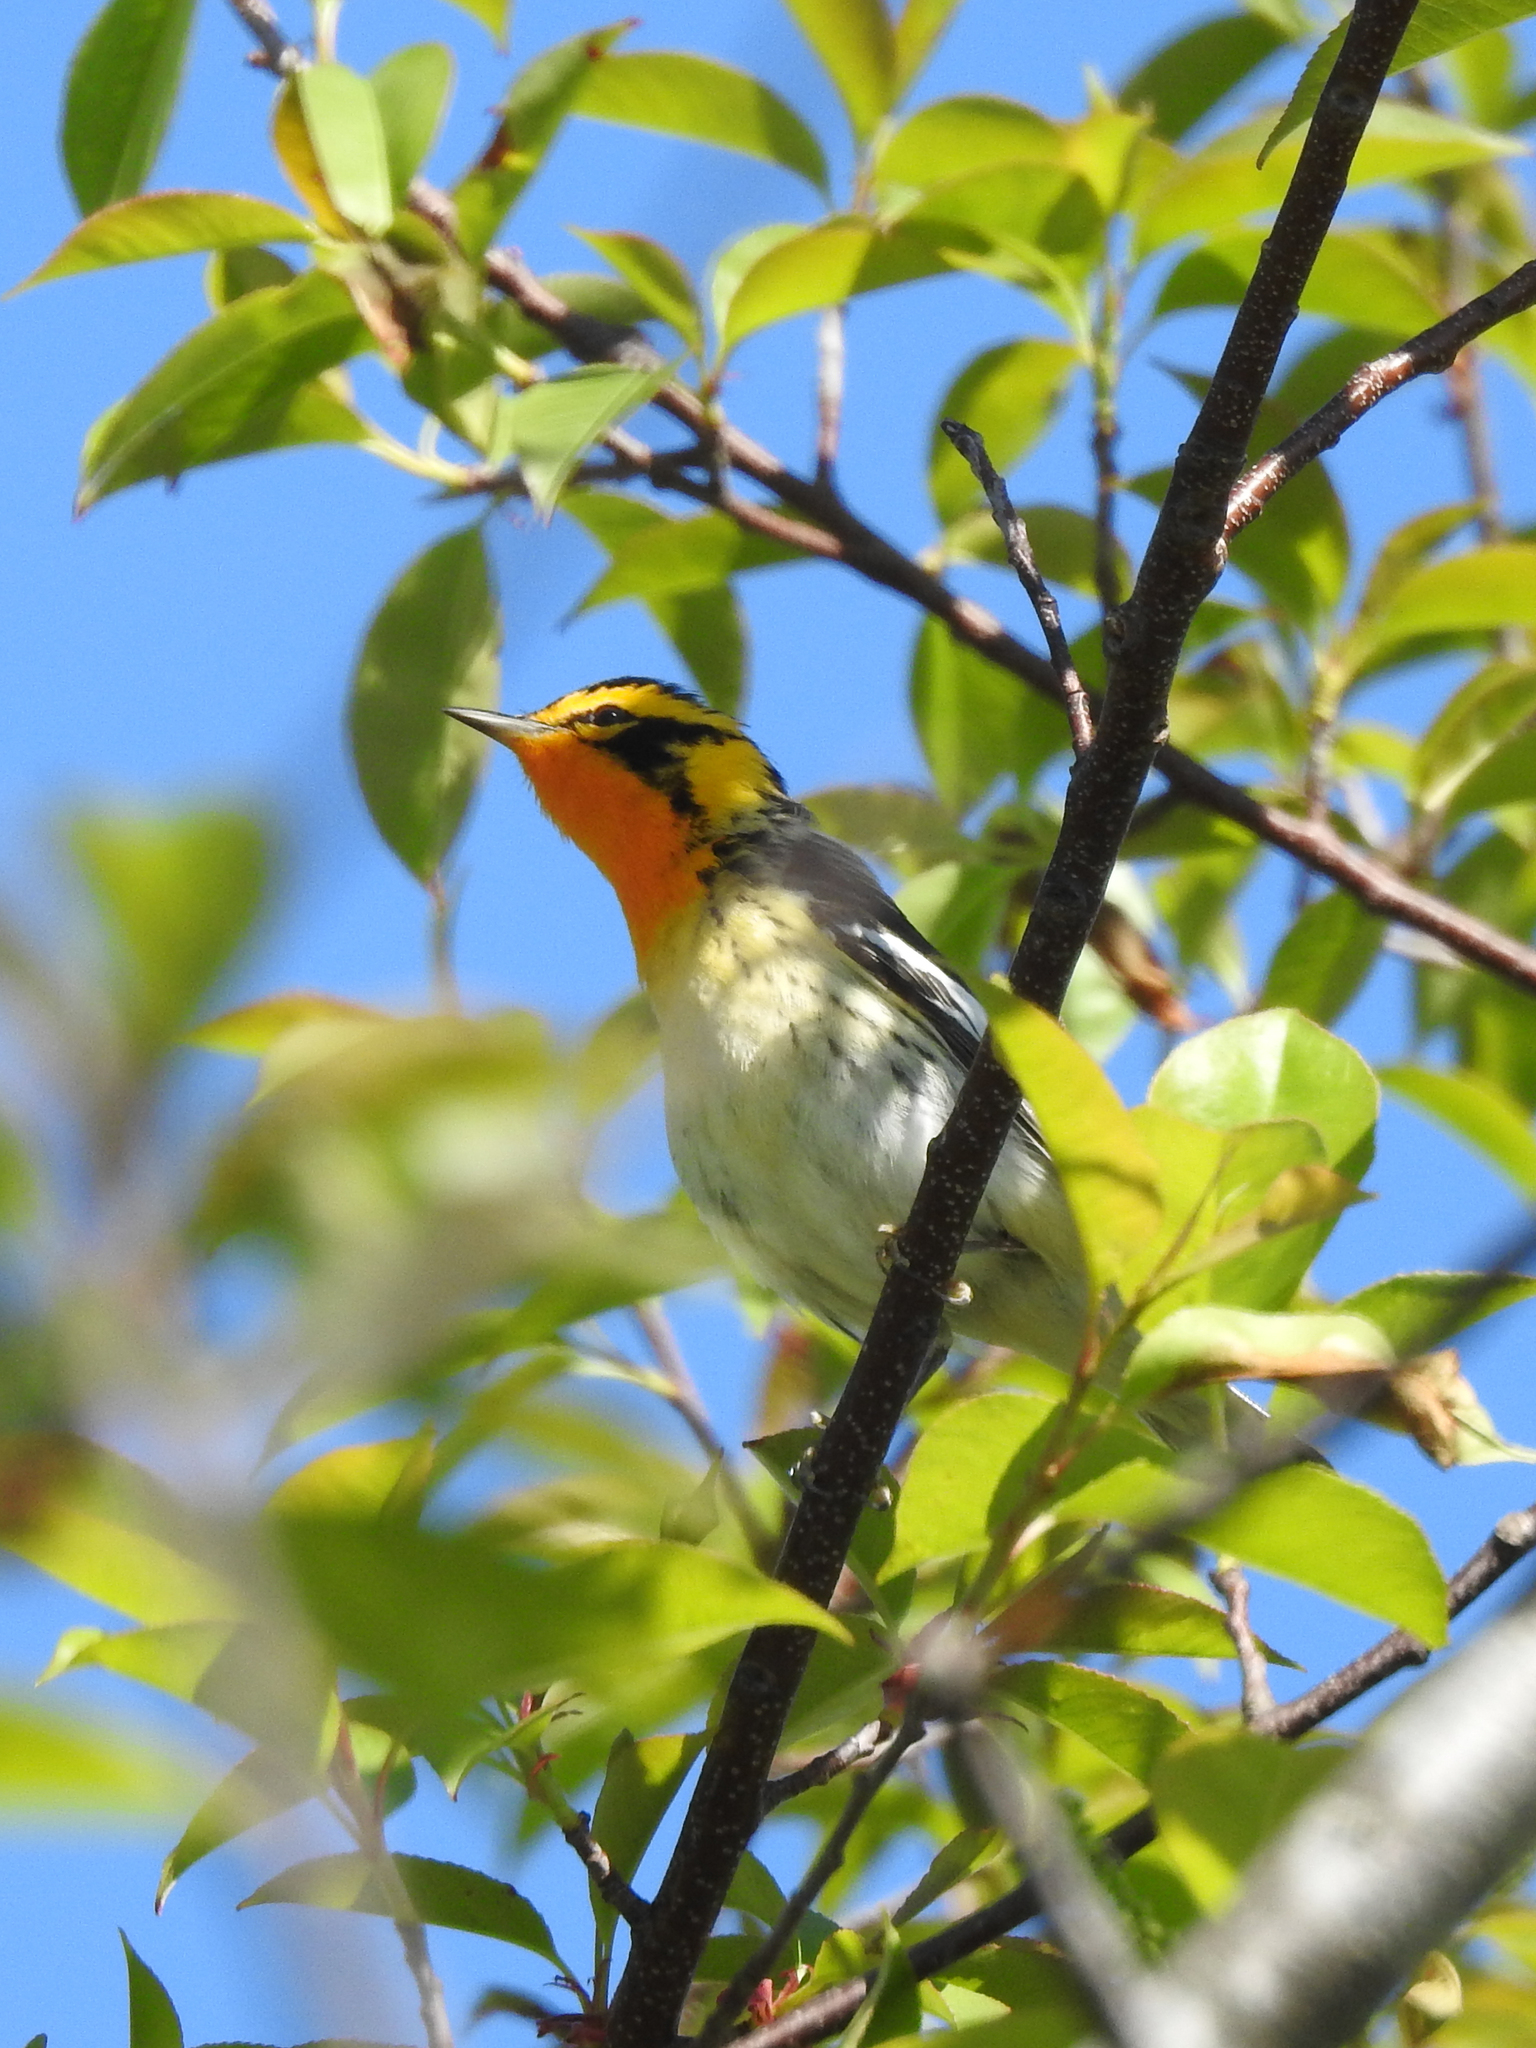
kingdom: Animalia
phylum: Chordata
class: Aves
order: Passeriformes
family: Parulidae
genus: Setophaga
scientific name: Setophaga fusca
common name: Blackburnian warbler
